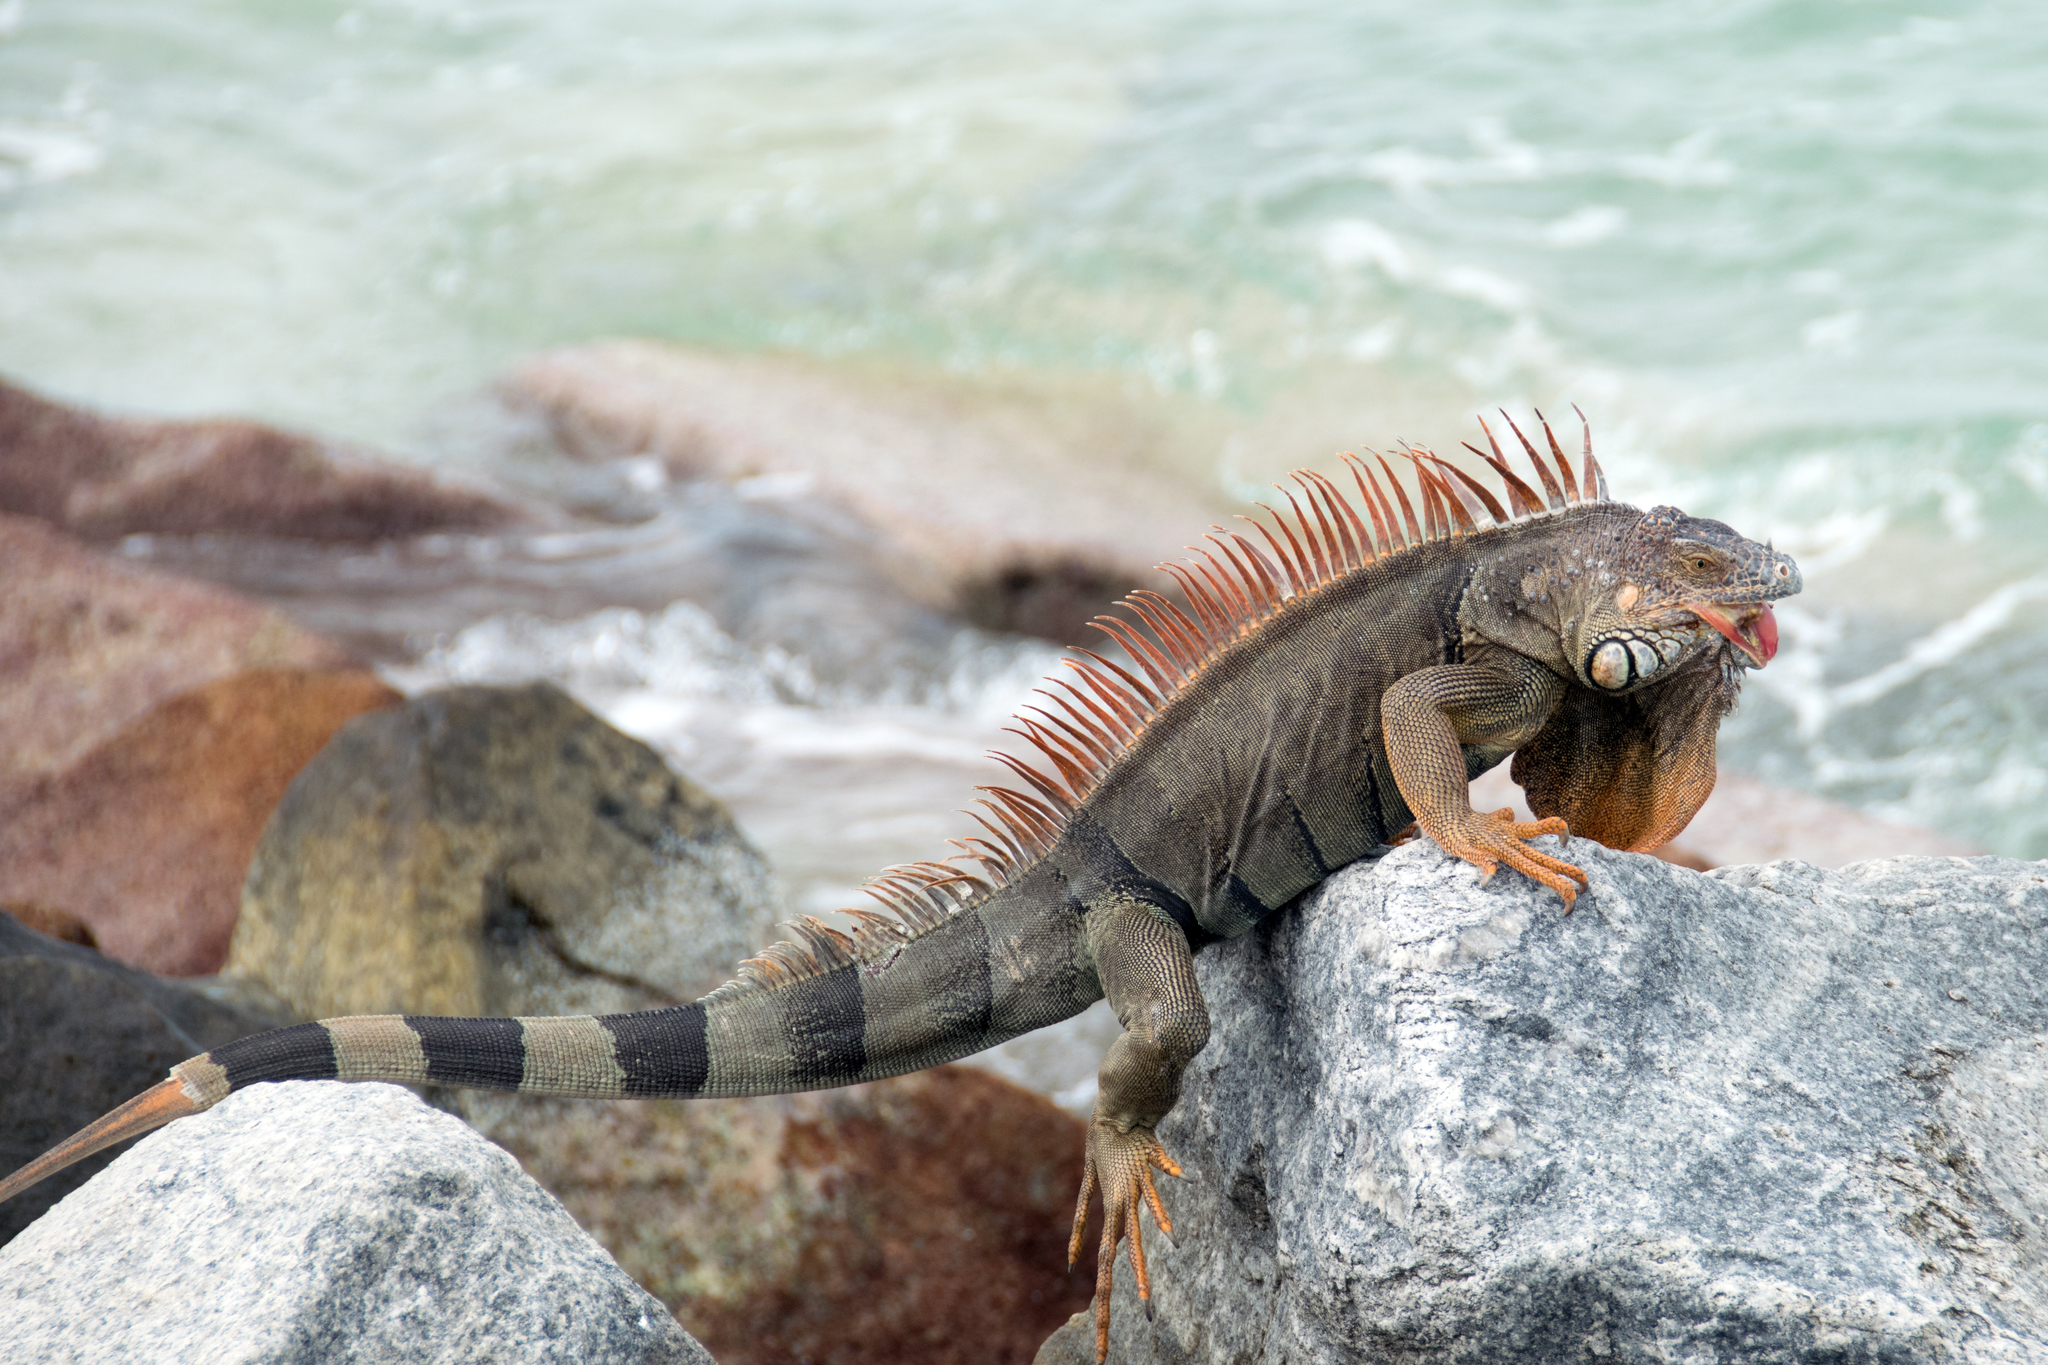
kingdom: Animalia
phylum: Chordata
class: Squamata
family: Iguanidae
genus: Iguana
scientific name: Iguana iguana
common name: Green iguana
